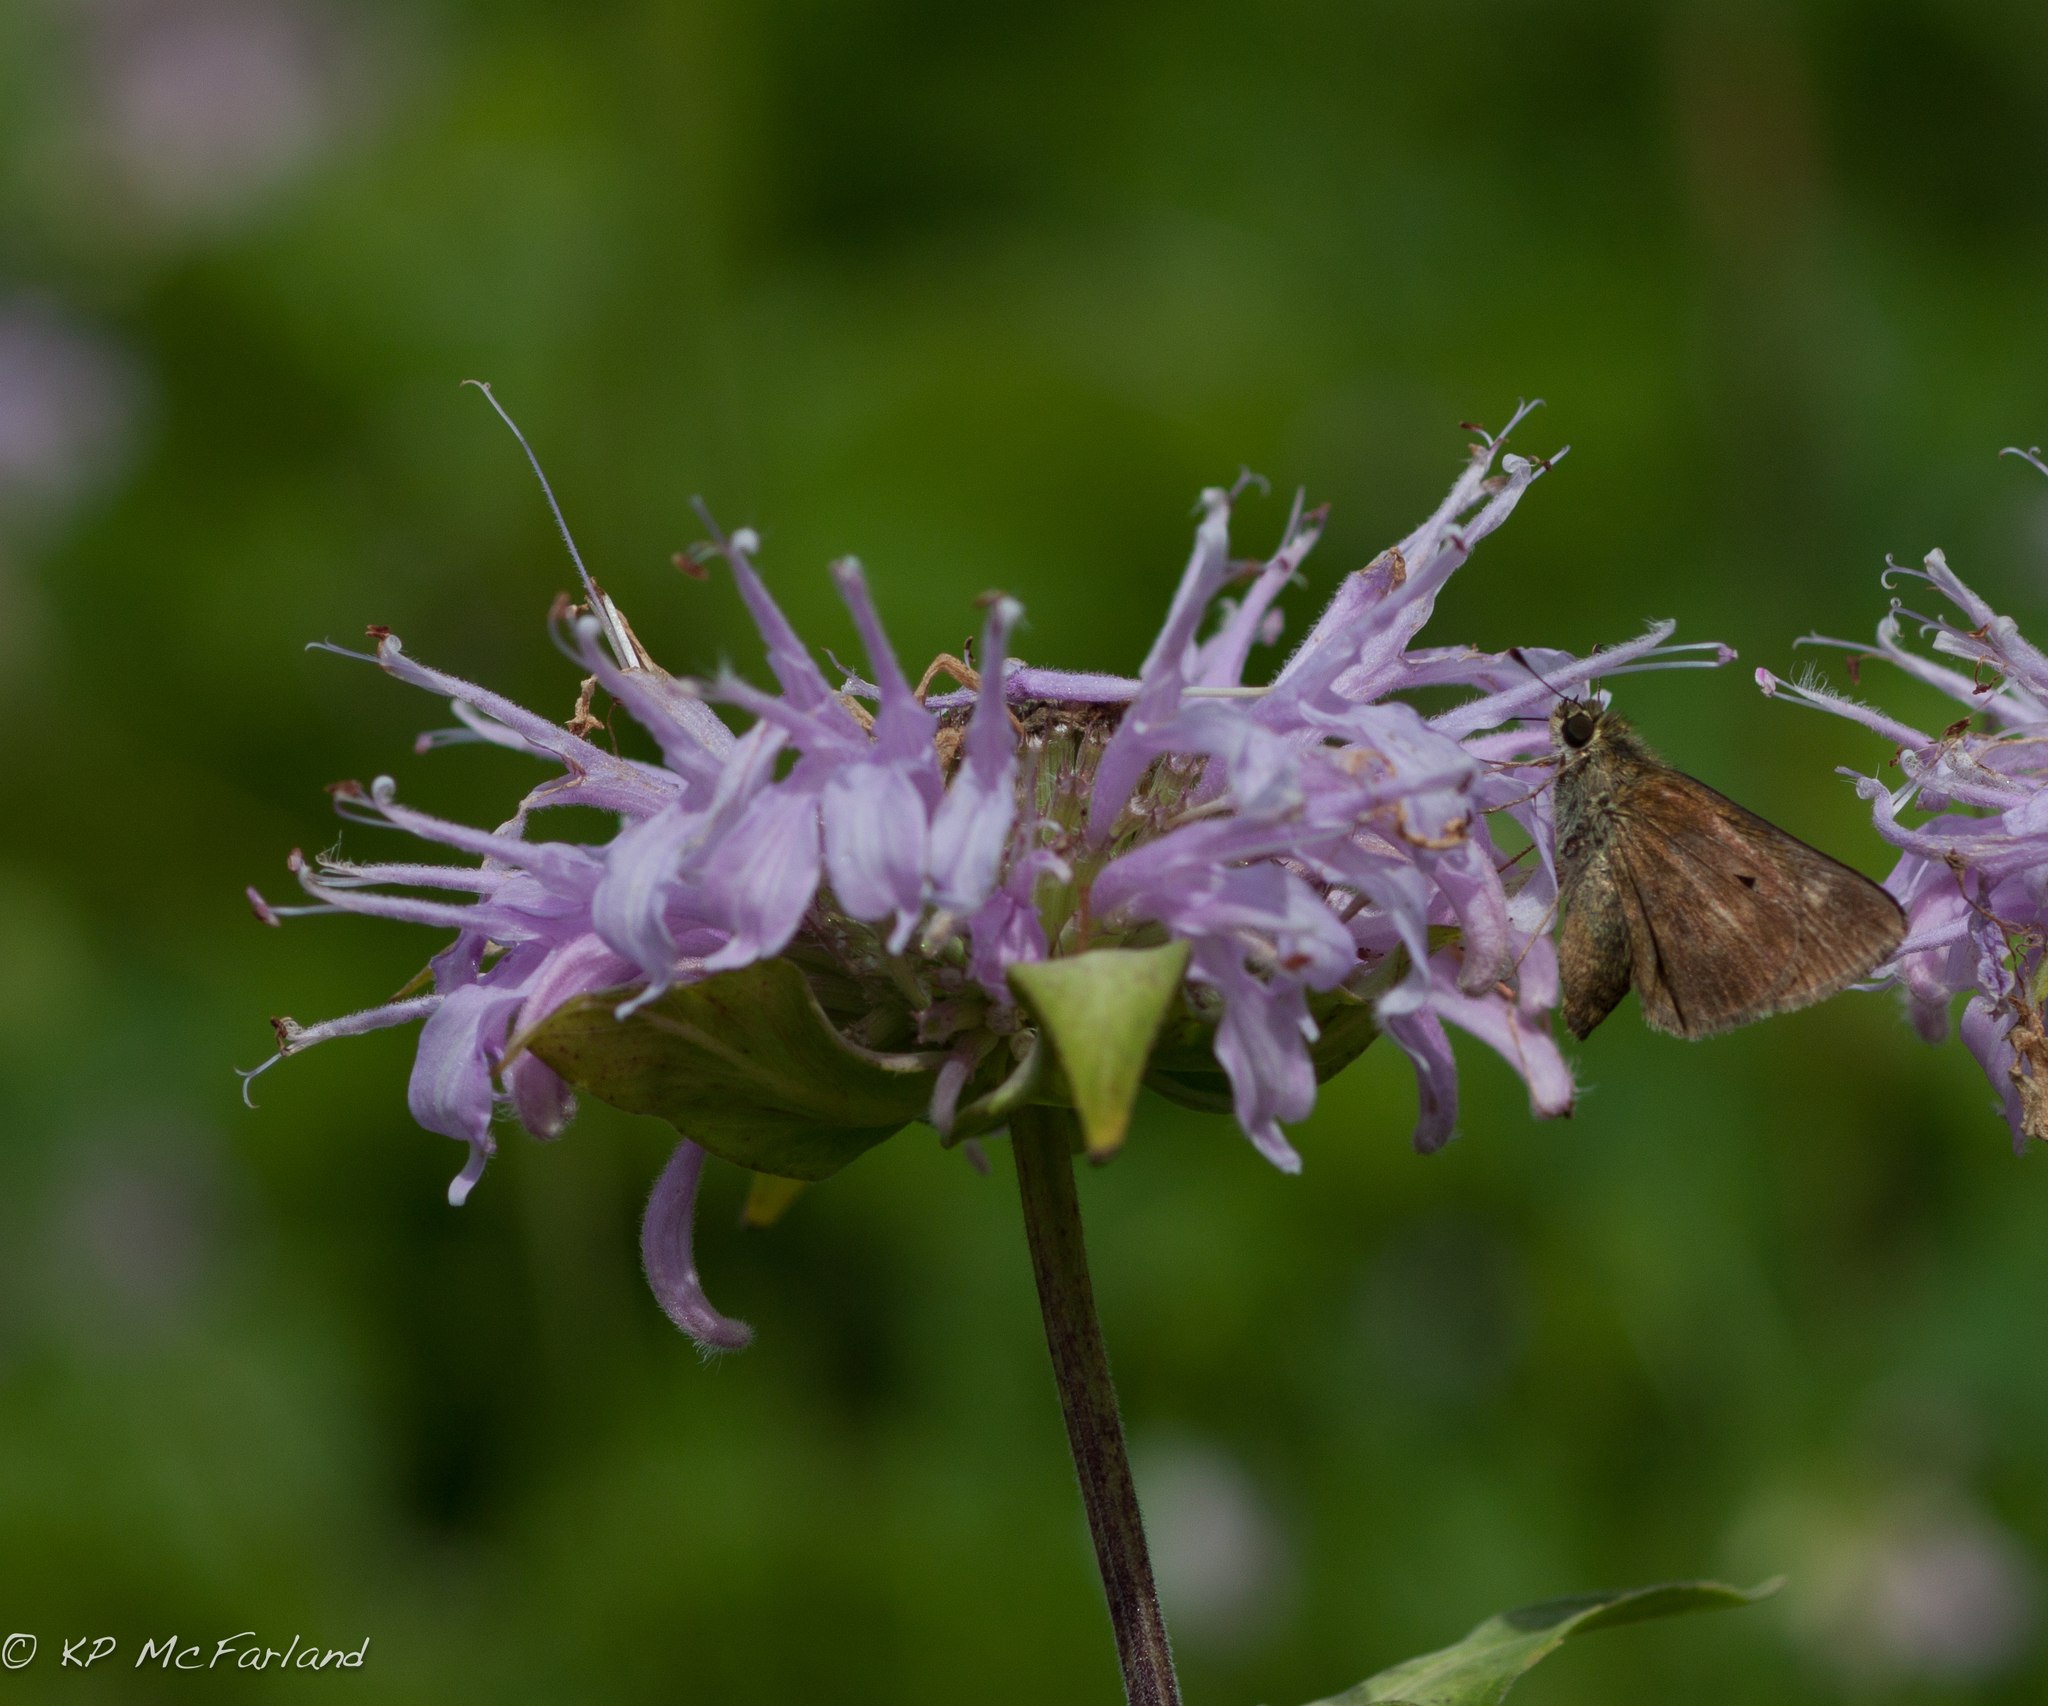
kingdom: Plantae
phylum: Tracheophyta
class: Magnoliopsida
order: Lamiales
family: Lamiaceae
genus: Monarda
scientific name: Monarda fistulosa
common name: Purple beebalm
